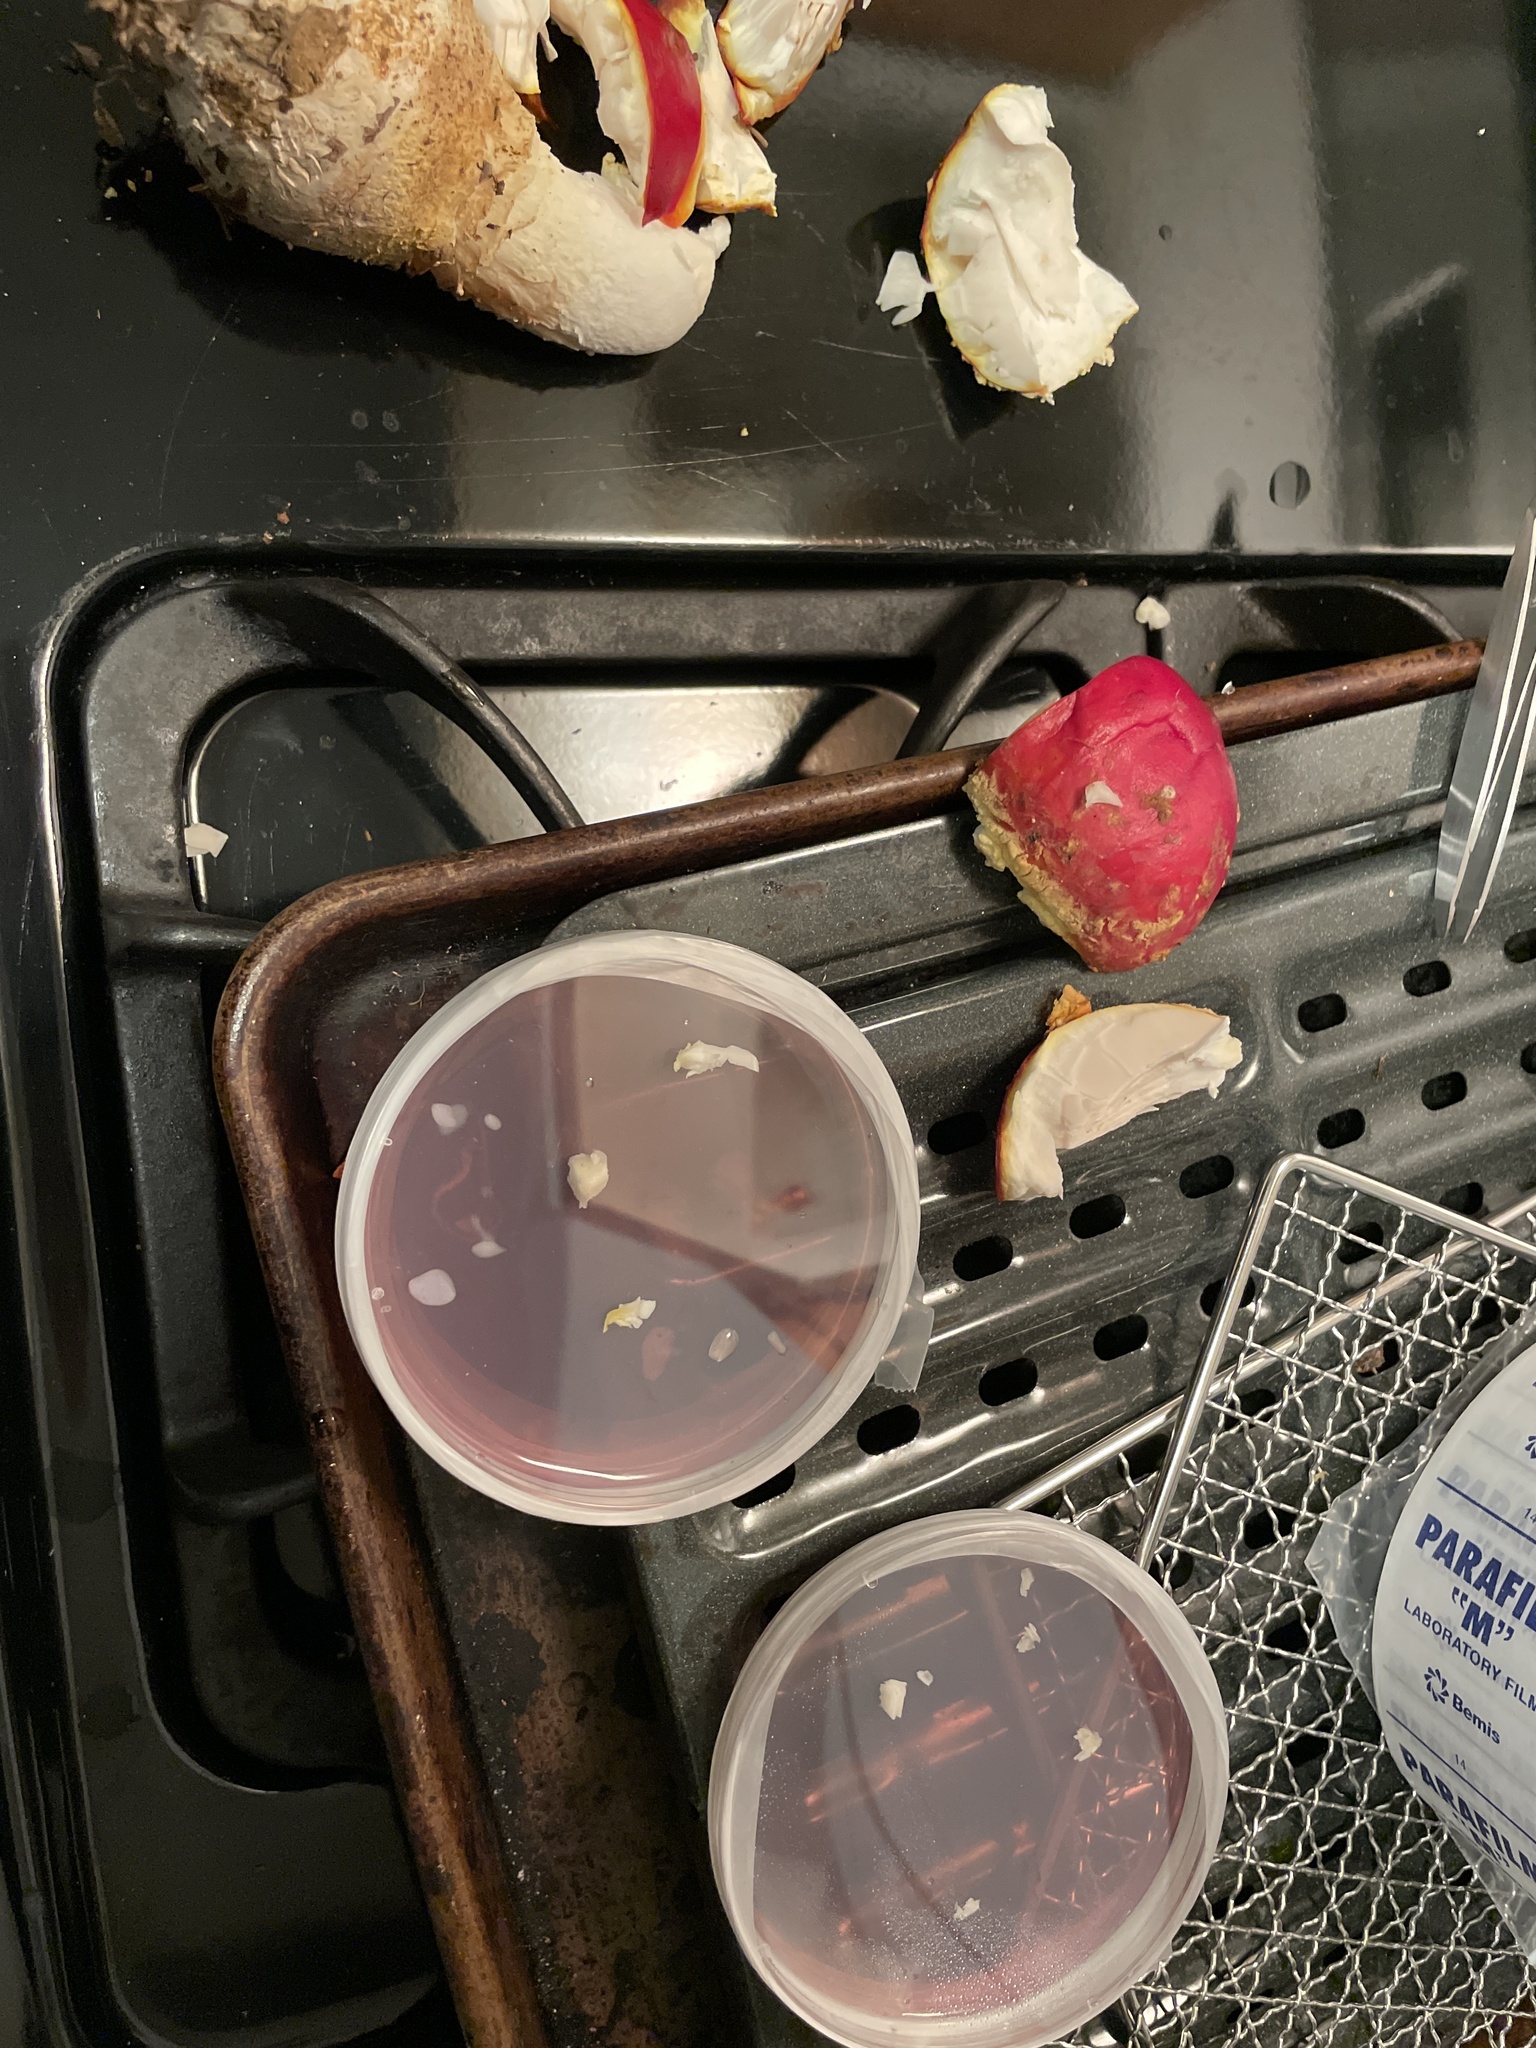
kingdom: Fungi
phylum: Basidiomycota
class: Agaricomycetes
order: Agaricales
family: Amanitaceae
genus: Amanita
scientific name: Amanita muscaria
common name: Fly agaric
